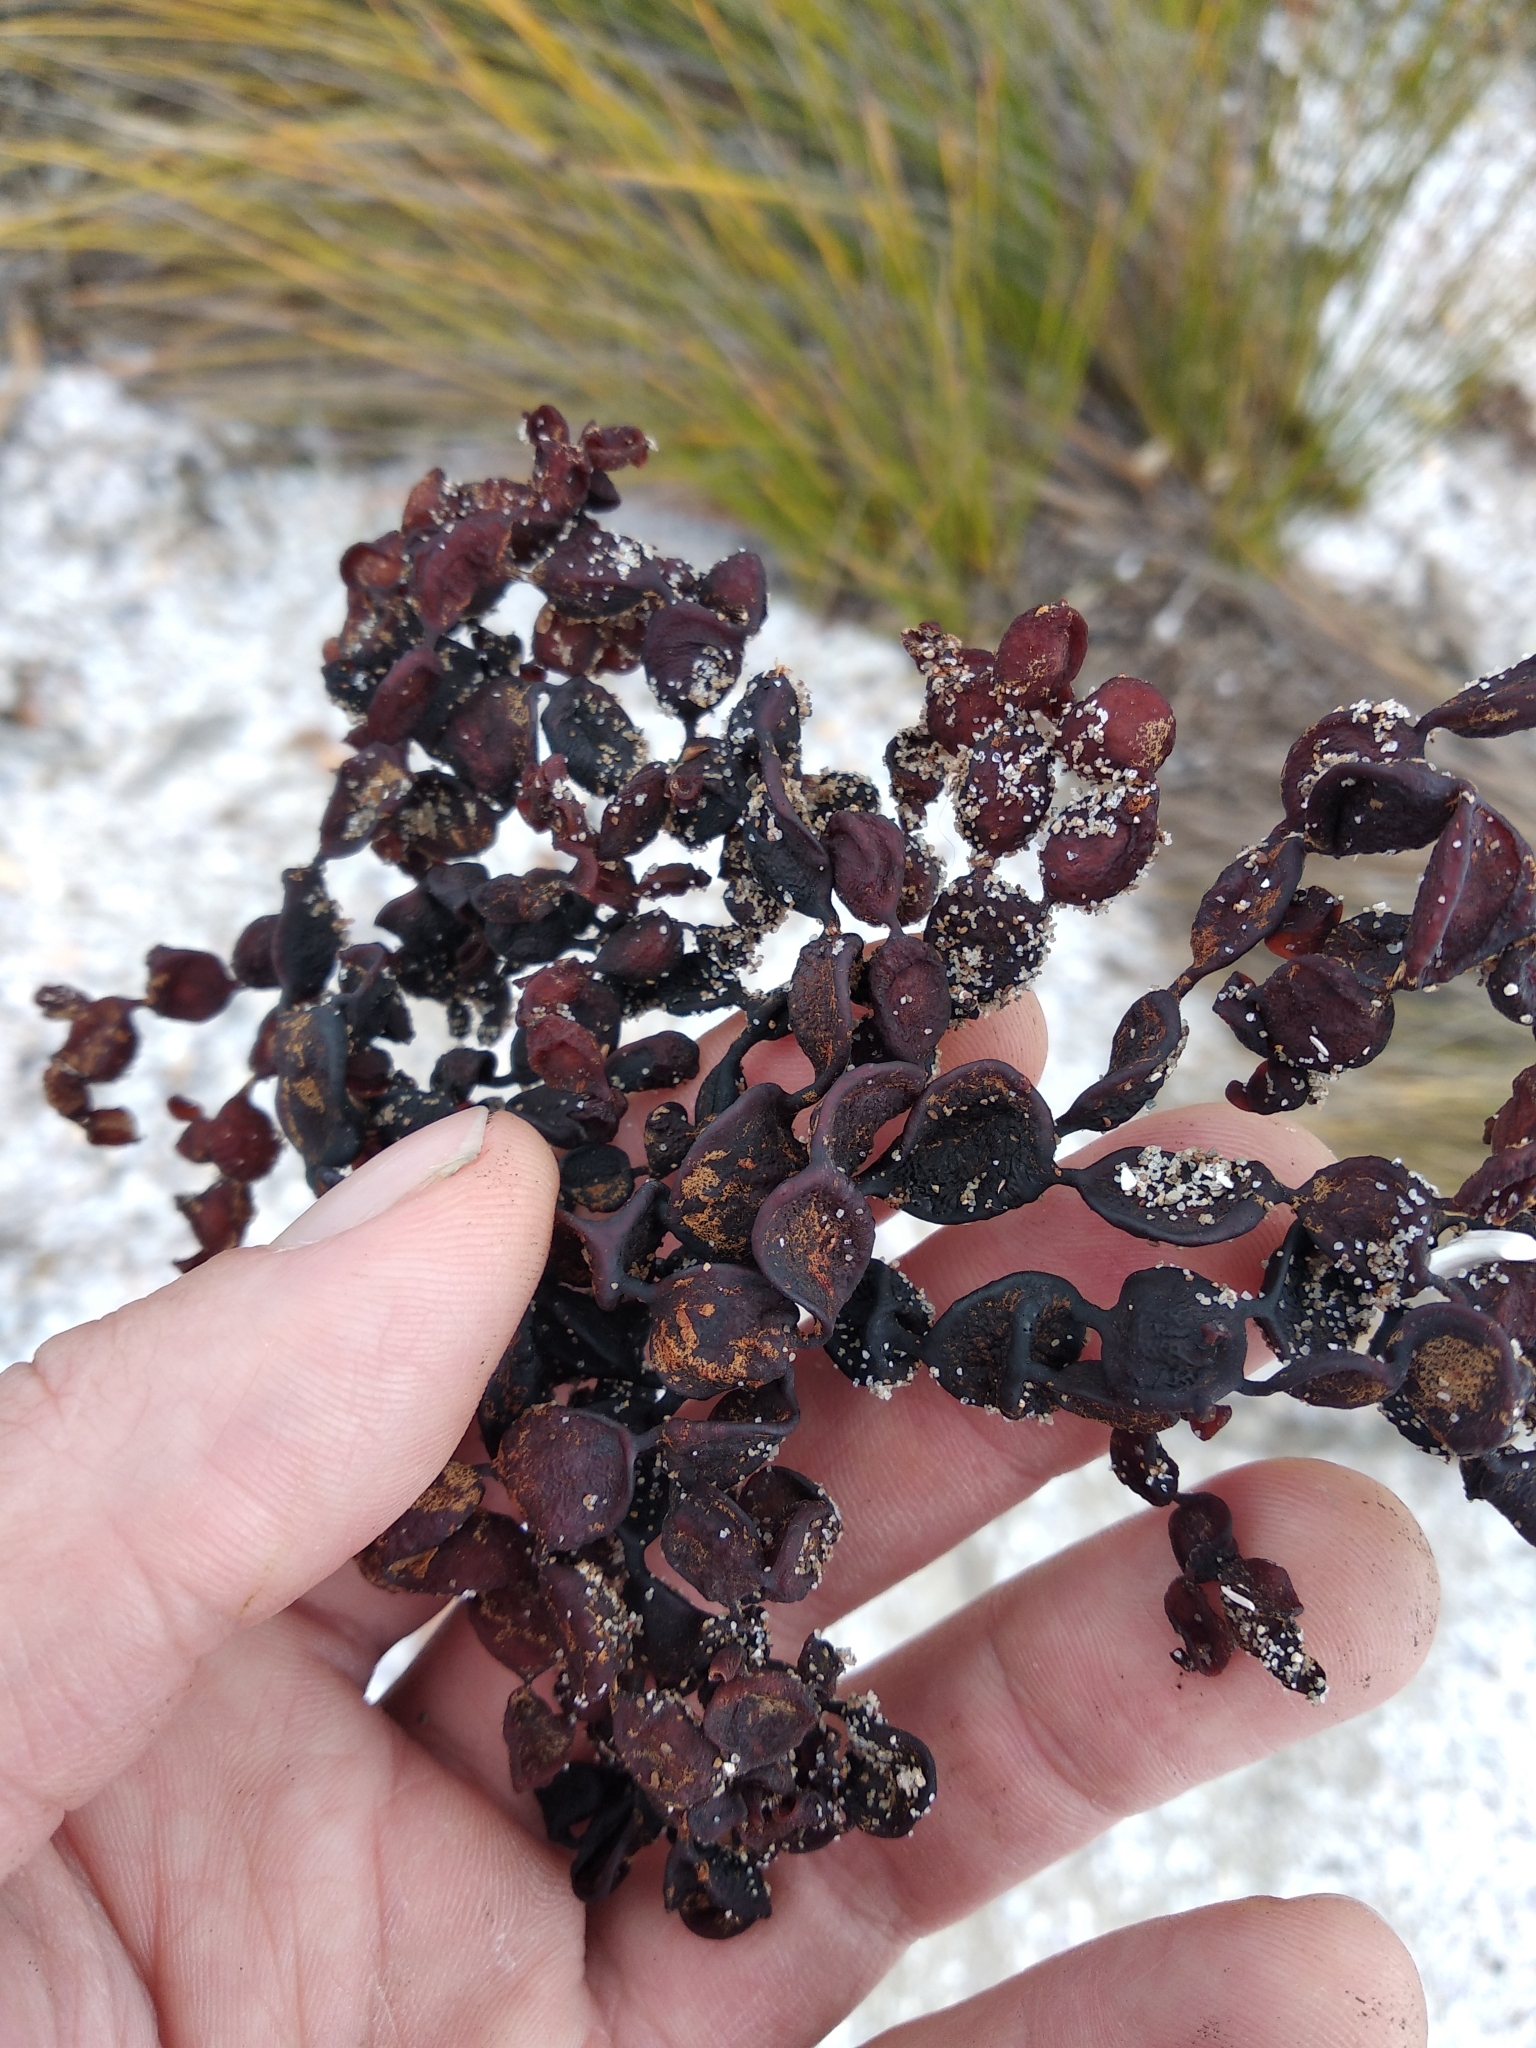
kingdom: Chromista
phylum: Ochrophyta
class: Phaeophyceae
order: Fucales
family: Hormosiraceae
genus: Hormosira
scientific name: Hormosira banksii
